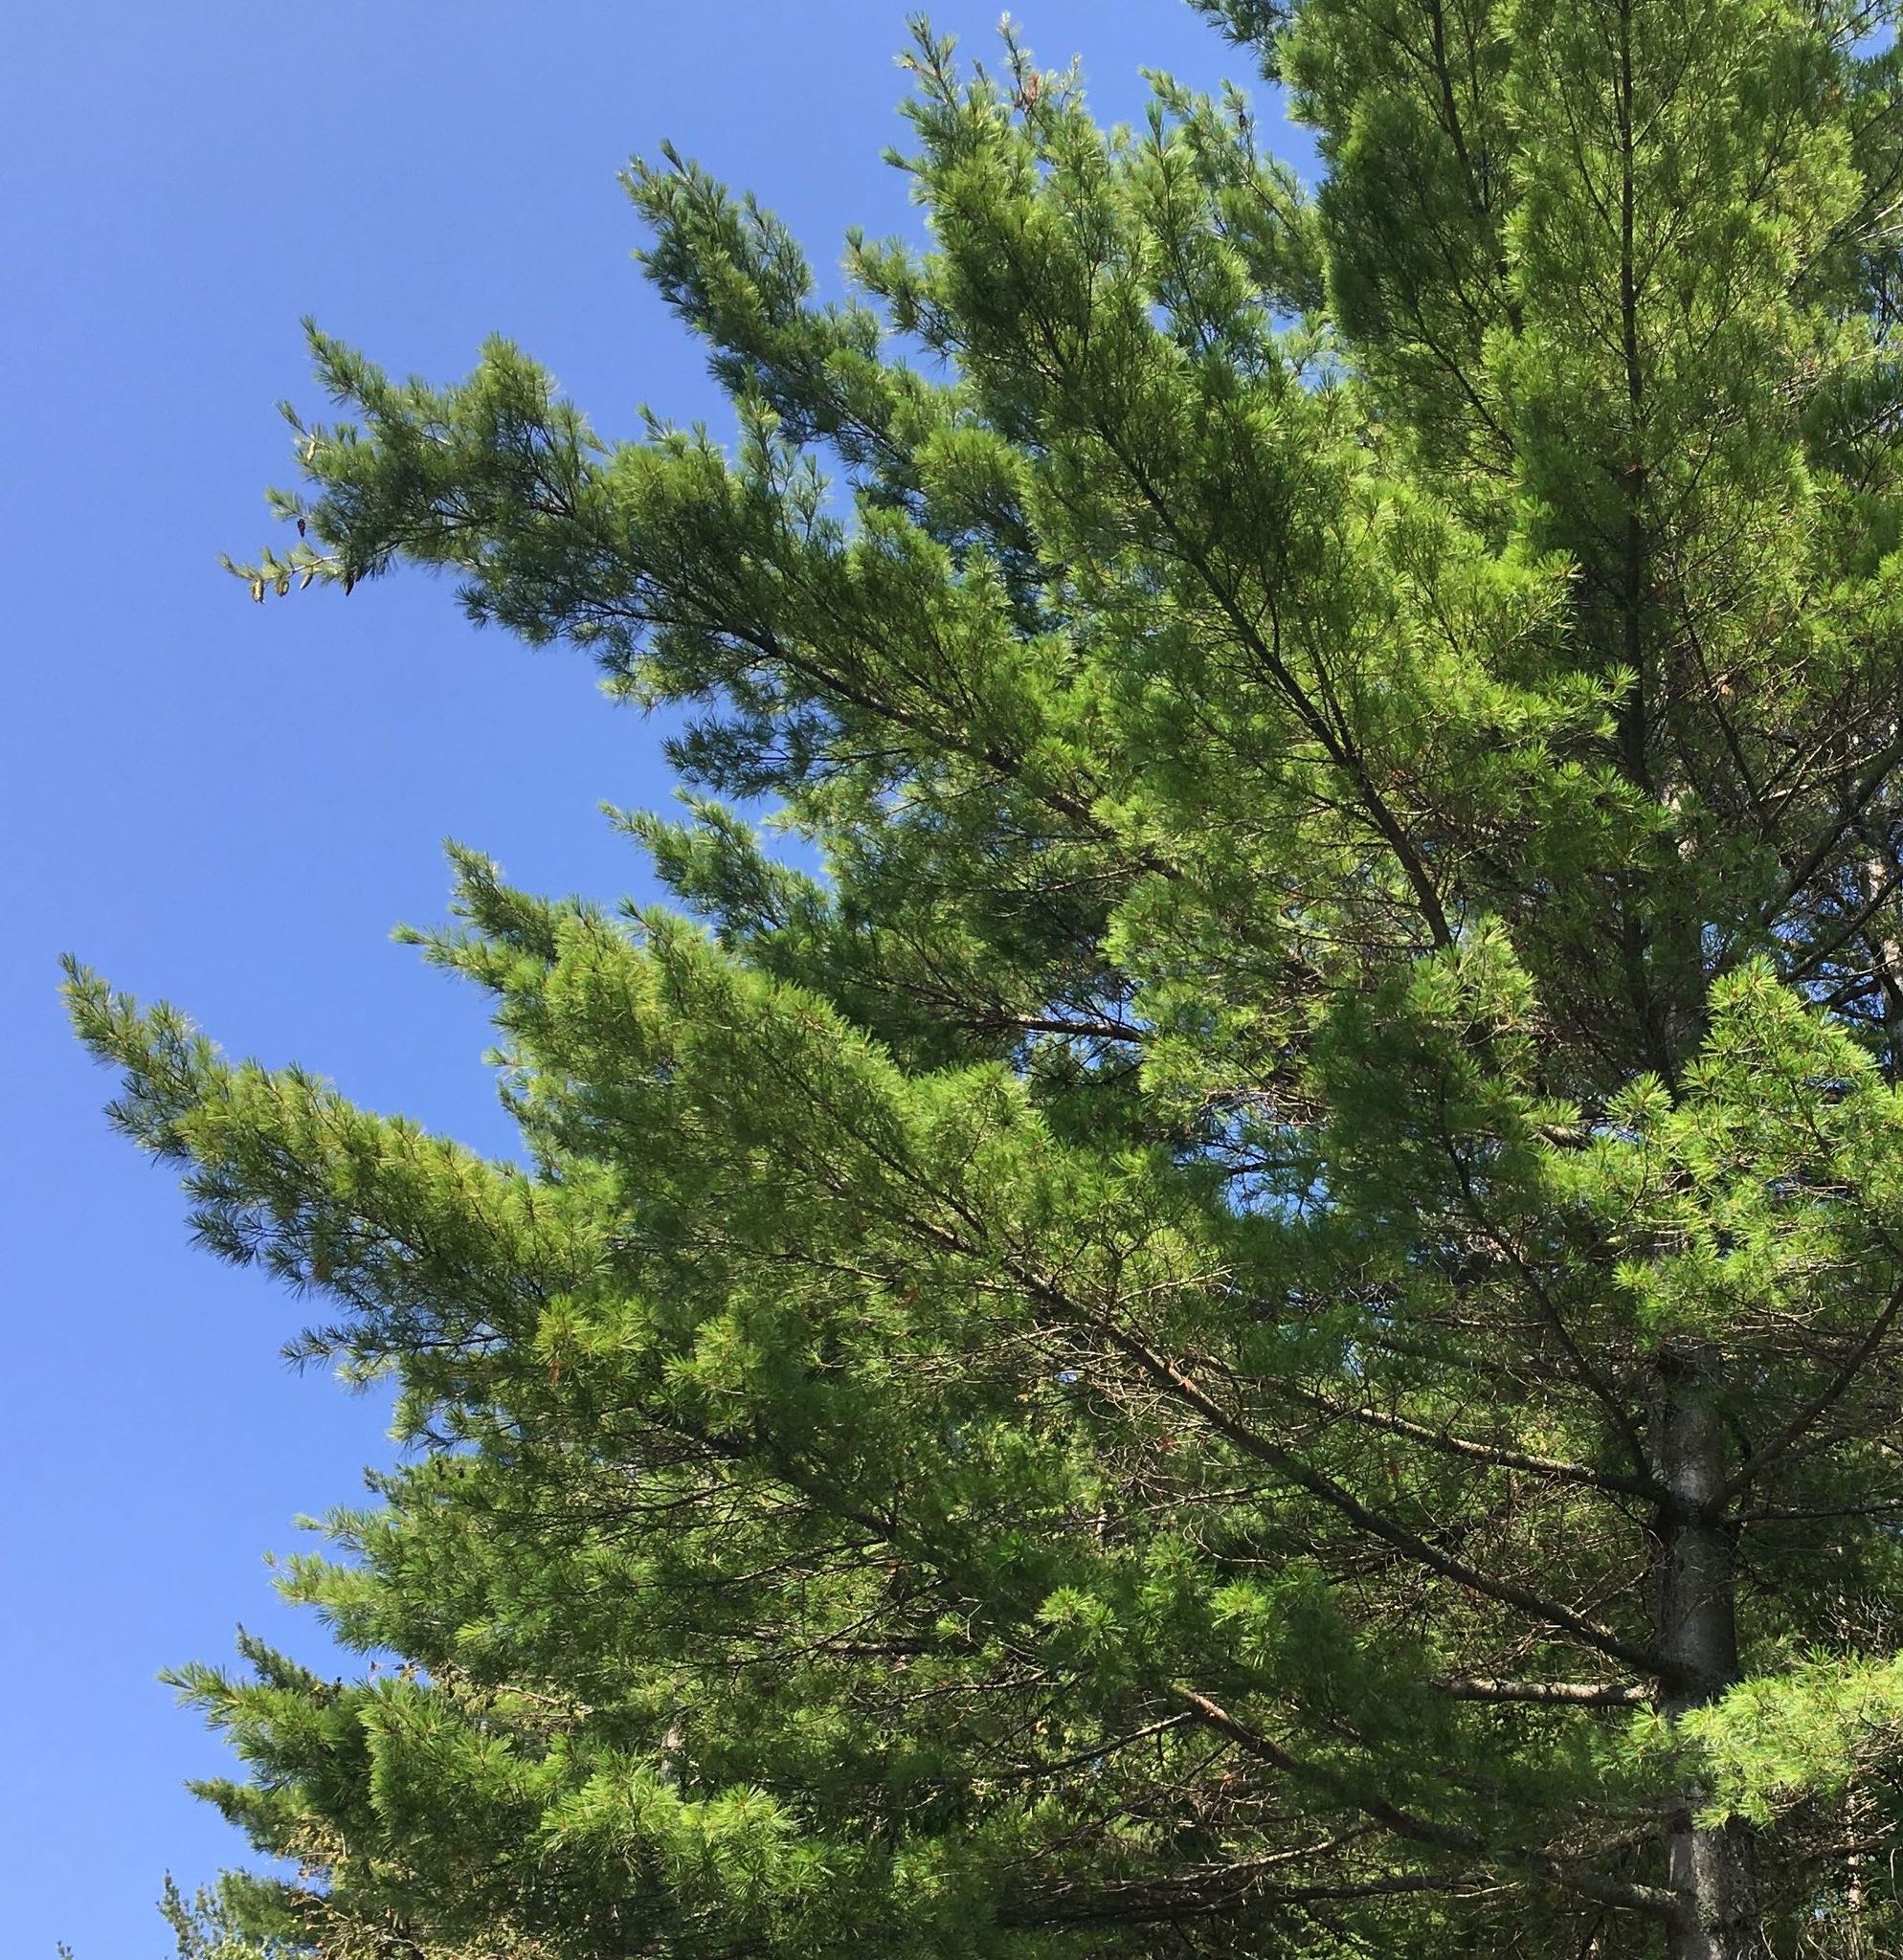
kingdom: Plantae
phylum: Tracheophyta
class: Pinopsida
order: Pinales
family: Pinaceae
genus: Pinus
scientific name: Pinus strobus
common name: Weymouth pine
